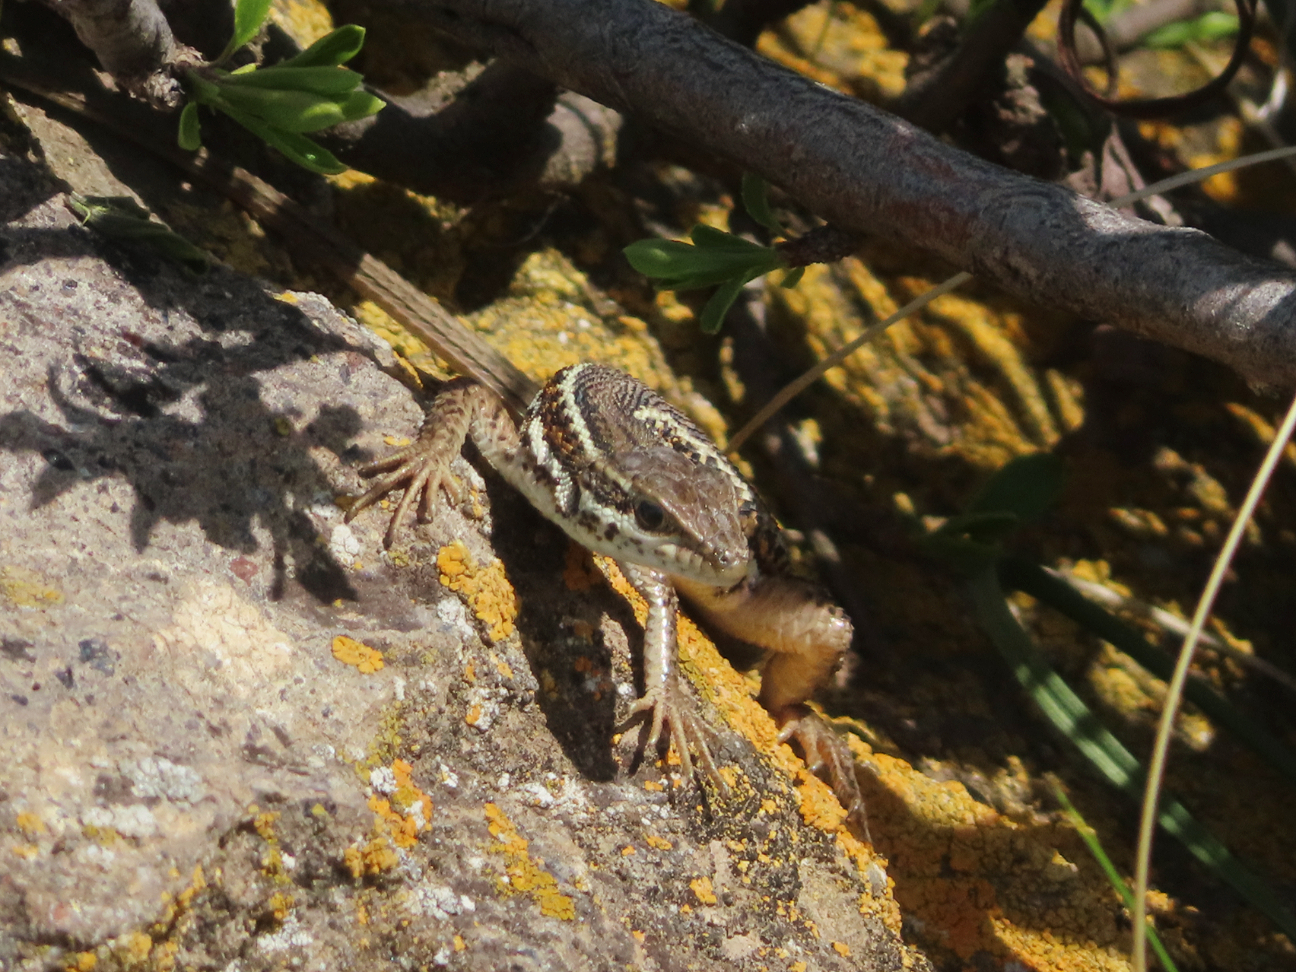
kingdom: Animalia
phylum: Chordata
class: Squamata
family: Lacertidae
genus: Ophisops
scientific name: Ophisops elegans
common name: Snake-eyed lizard
